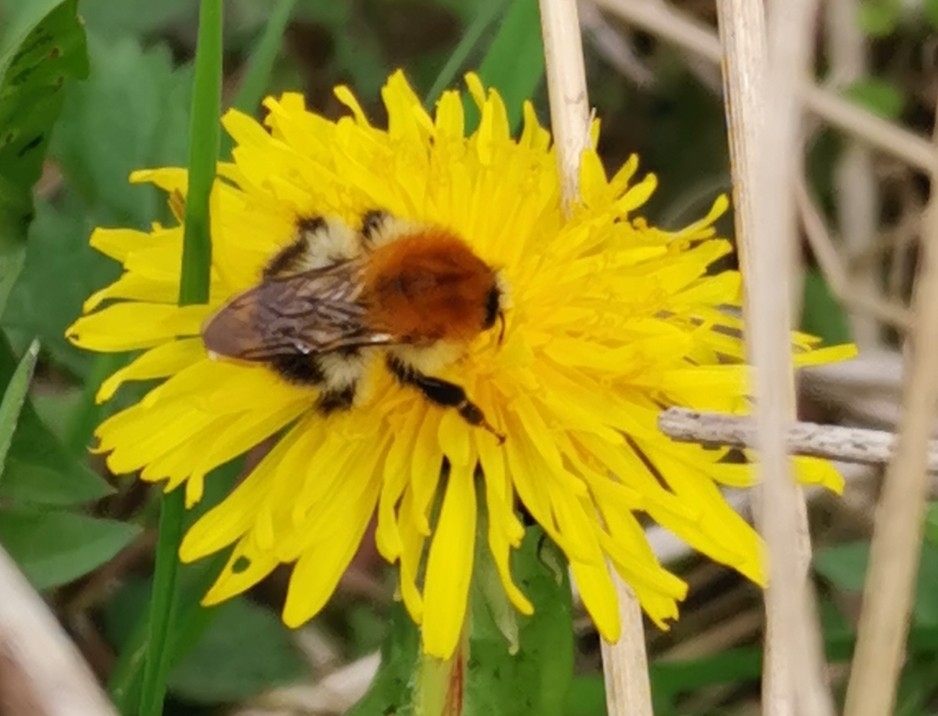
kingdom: Animalia
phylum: Arthropoda
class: Insecta
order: Hymenoptera
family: Apidae
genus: Bombus
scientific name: Bombus pascuorum
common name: Common carder bee
